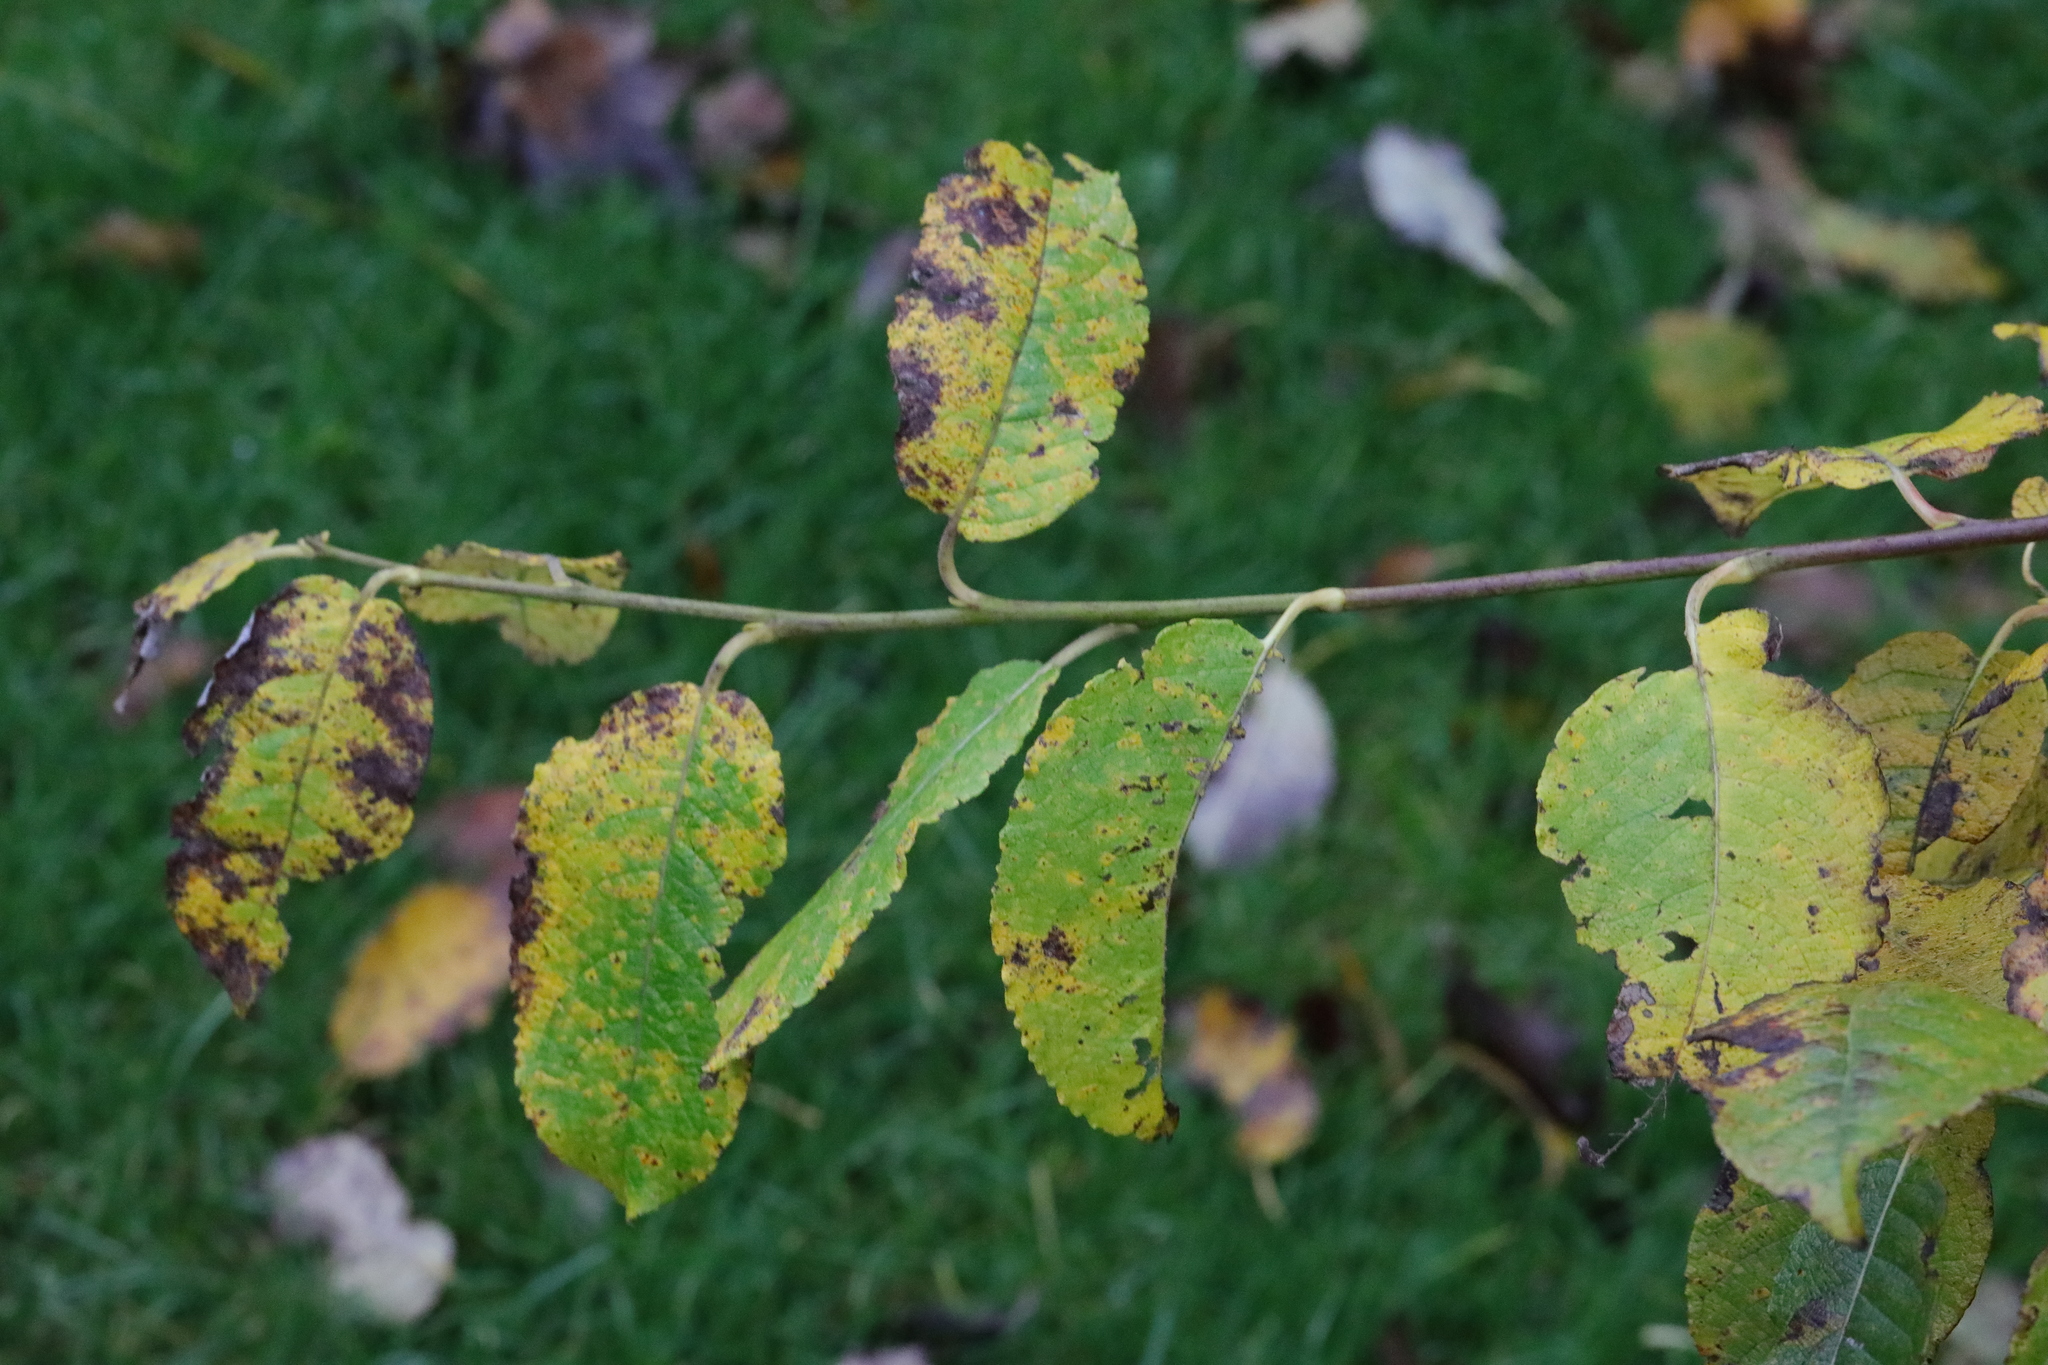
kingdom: Plantae
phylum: Tracheophyta
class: Magnoliopsida
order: Malpighiales
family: Salicaceae
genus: Salix
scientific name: Salix caprea
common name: Goat willow
